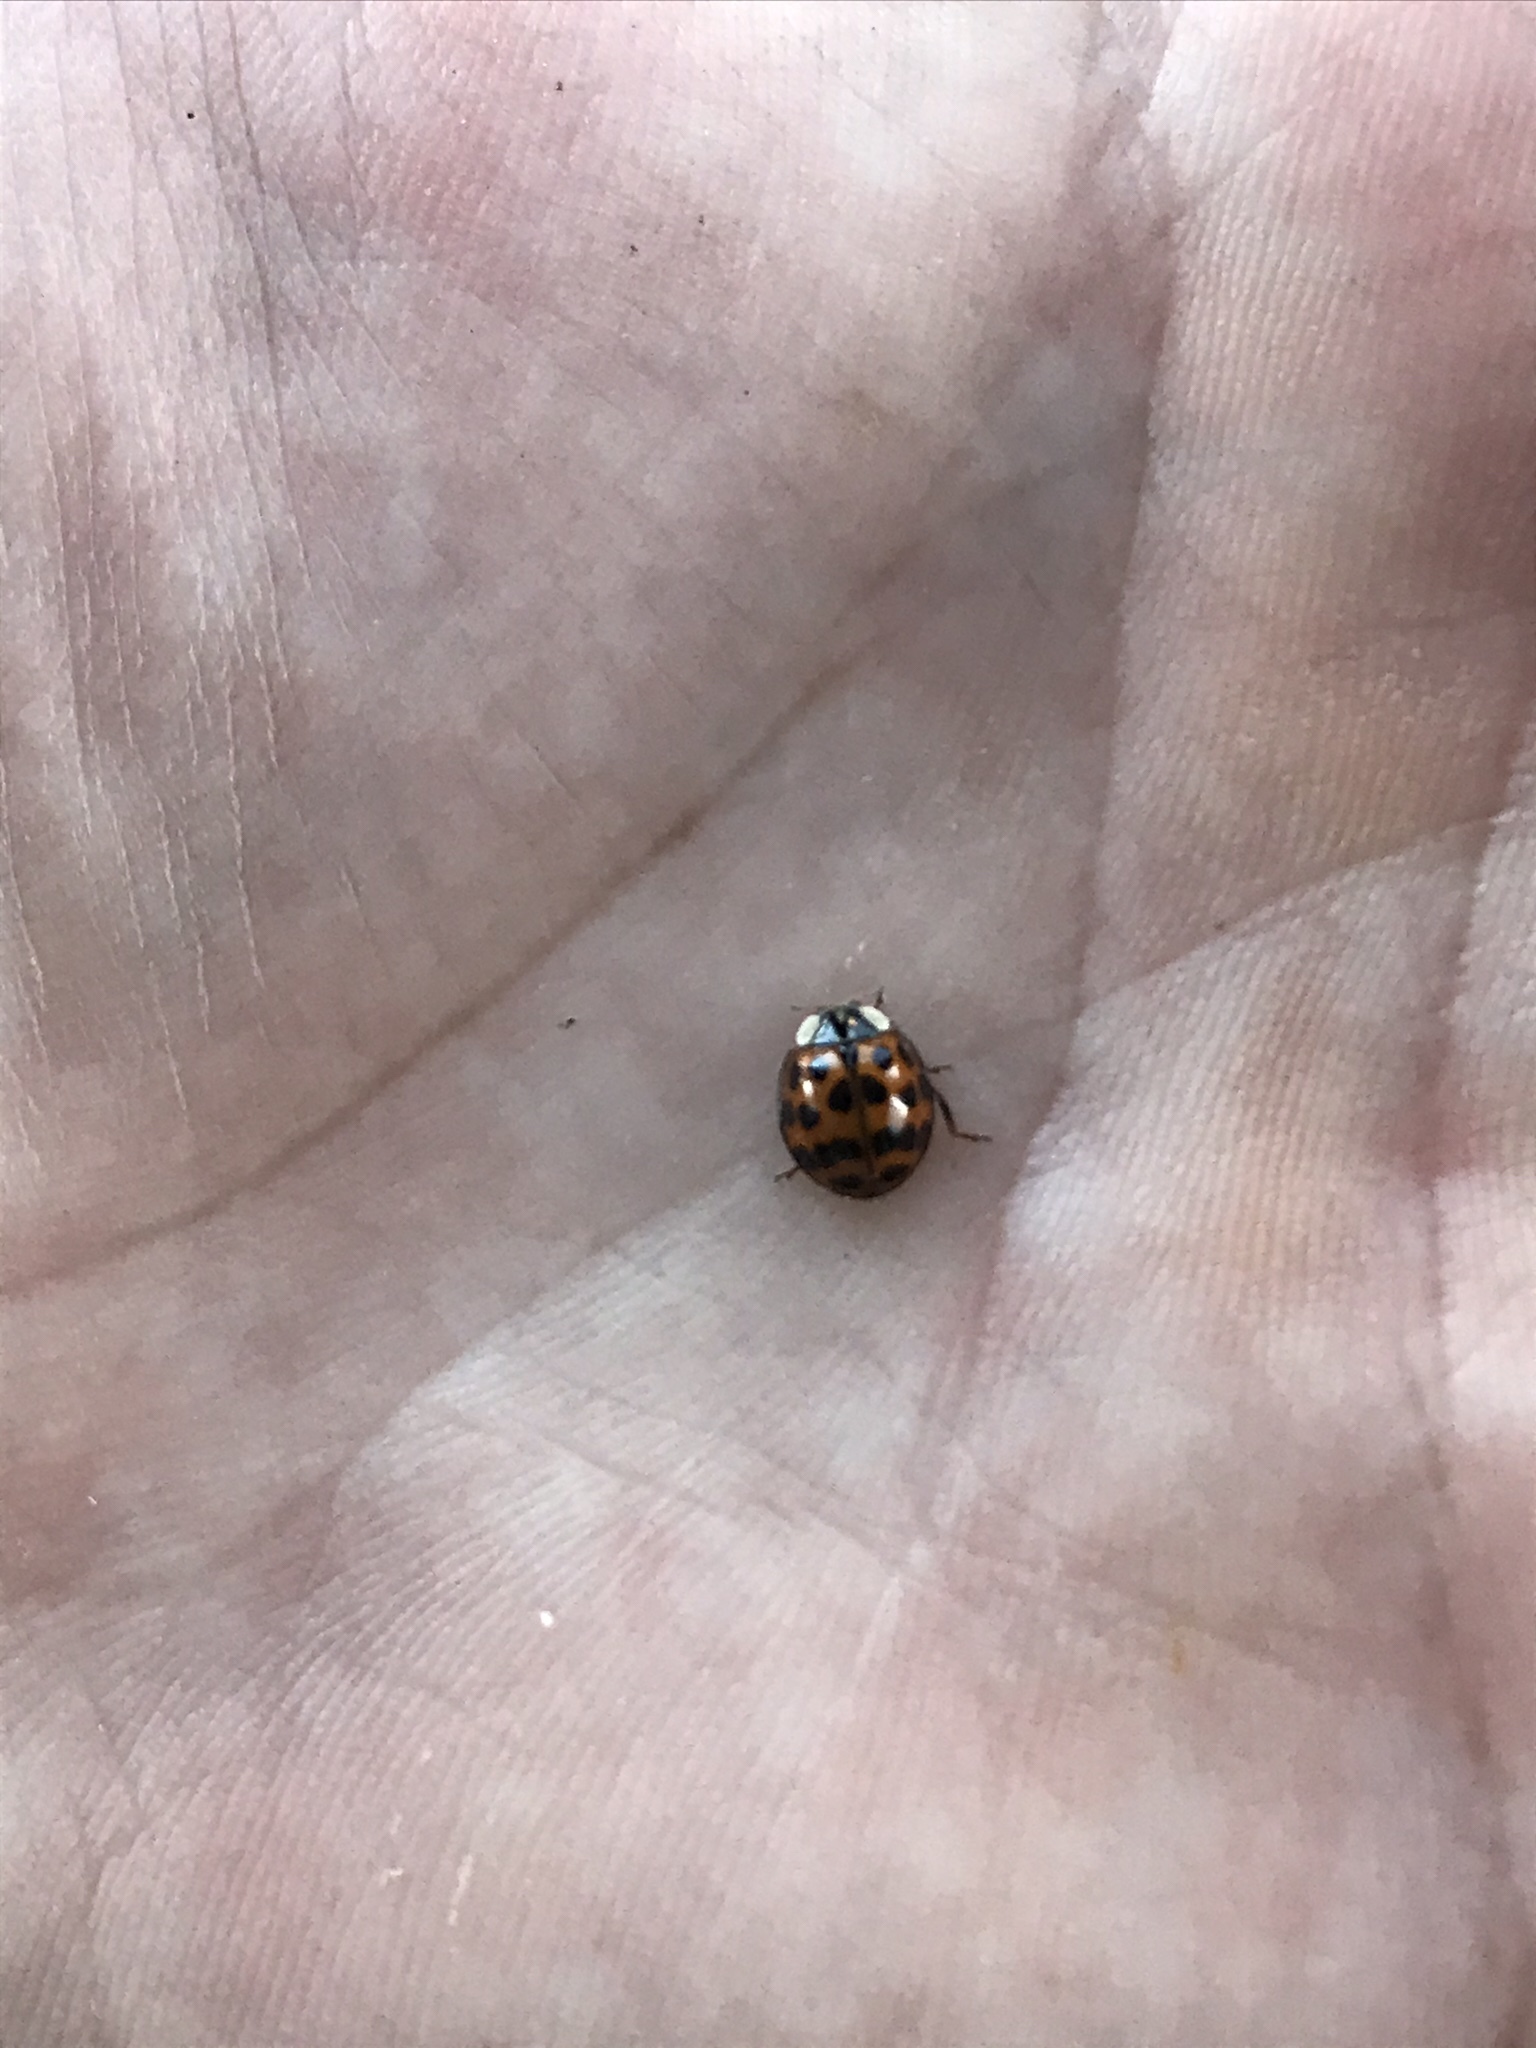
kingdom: Animalia
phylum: Arthropoda
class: Insecta
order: Coleoptera
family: Coccinellidae
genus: Harmonia
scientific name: Harmonia axyridis
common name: Harlequin ladybird
